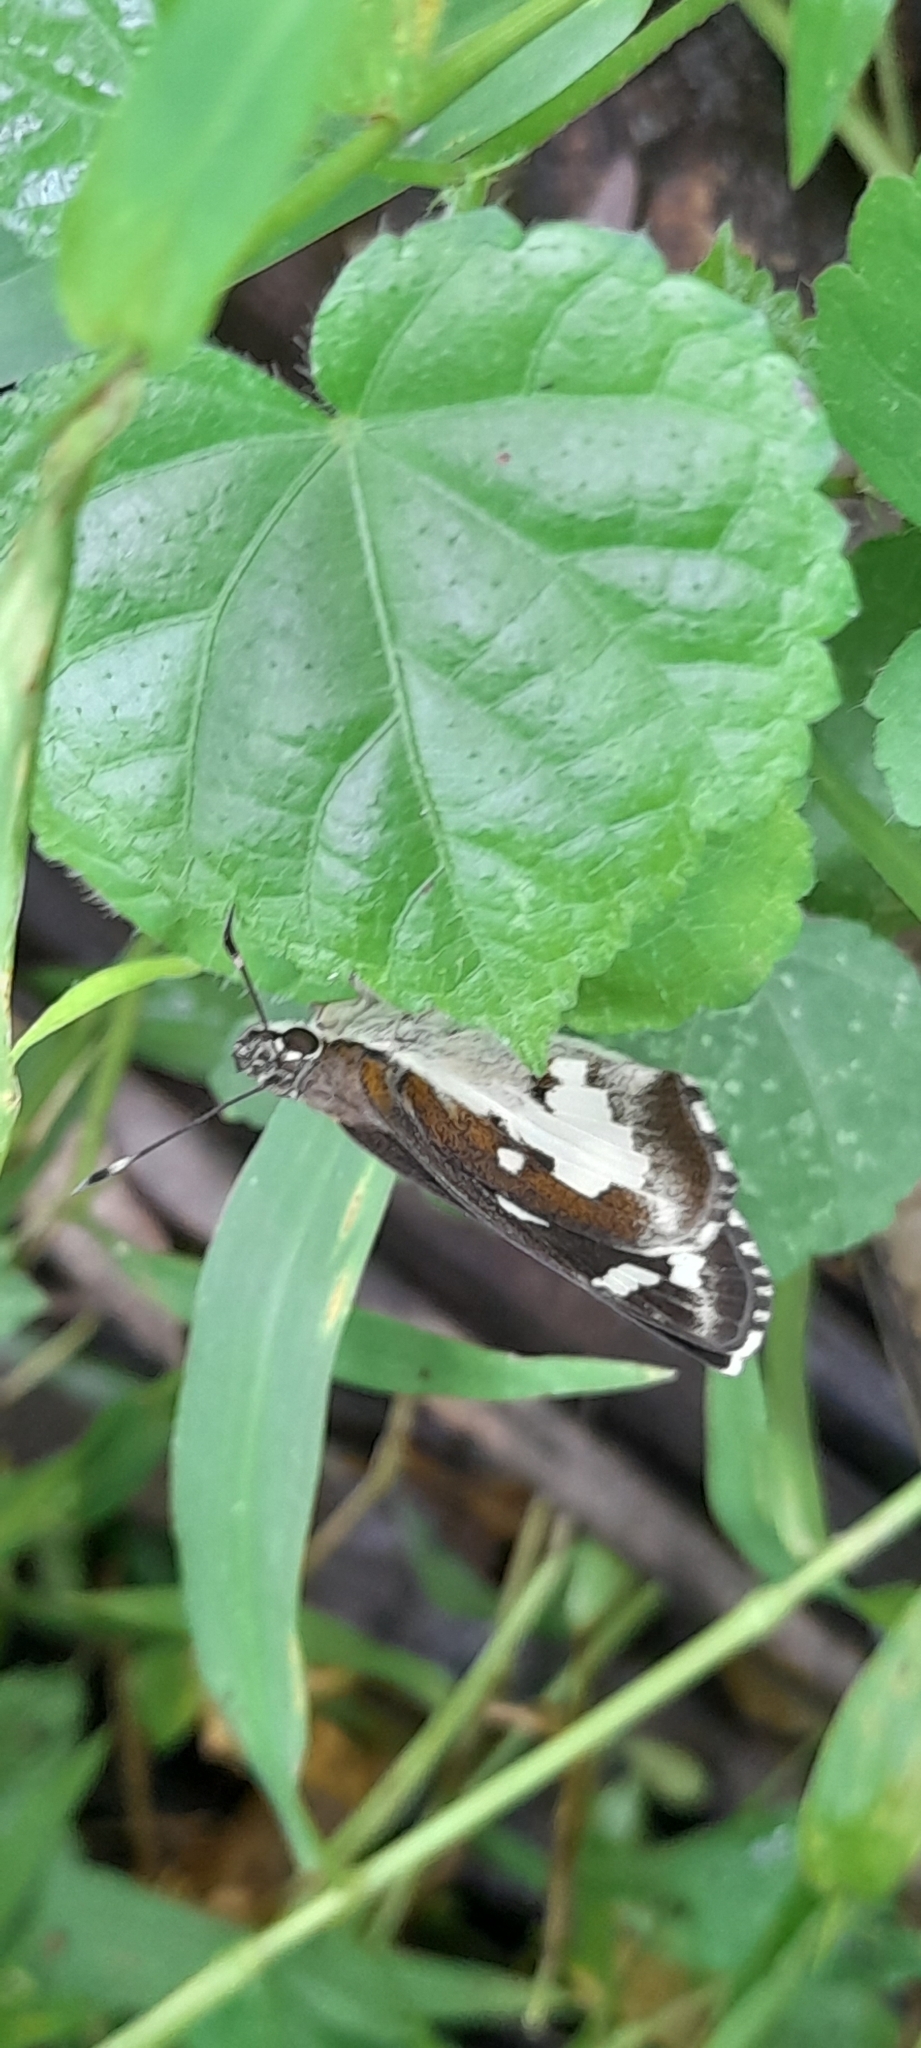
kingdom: Animalia
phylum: Arthropoda
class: Insecta
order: Lepidoptera
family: Hesperiidae
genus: Udaspes
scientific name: Udaspes folus
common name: Grass demon
